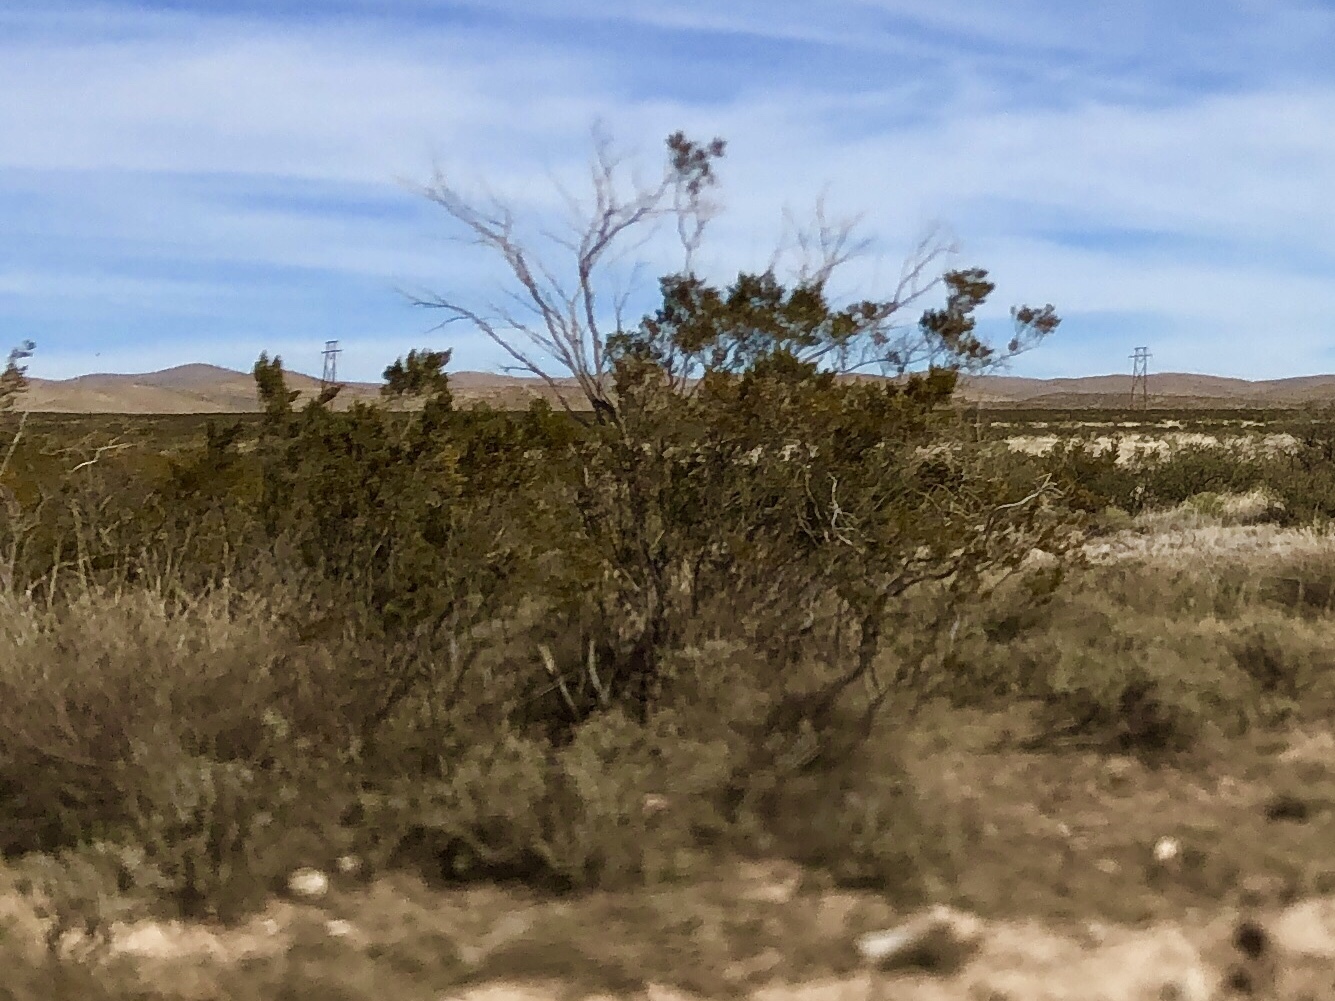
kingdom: Plantae
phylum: Tracheophyta
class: Magnoliopsida
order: Zygophyllales
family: Zygophyllaceae
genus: Larrea
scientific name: Larrea tridentata
